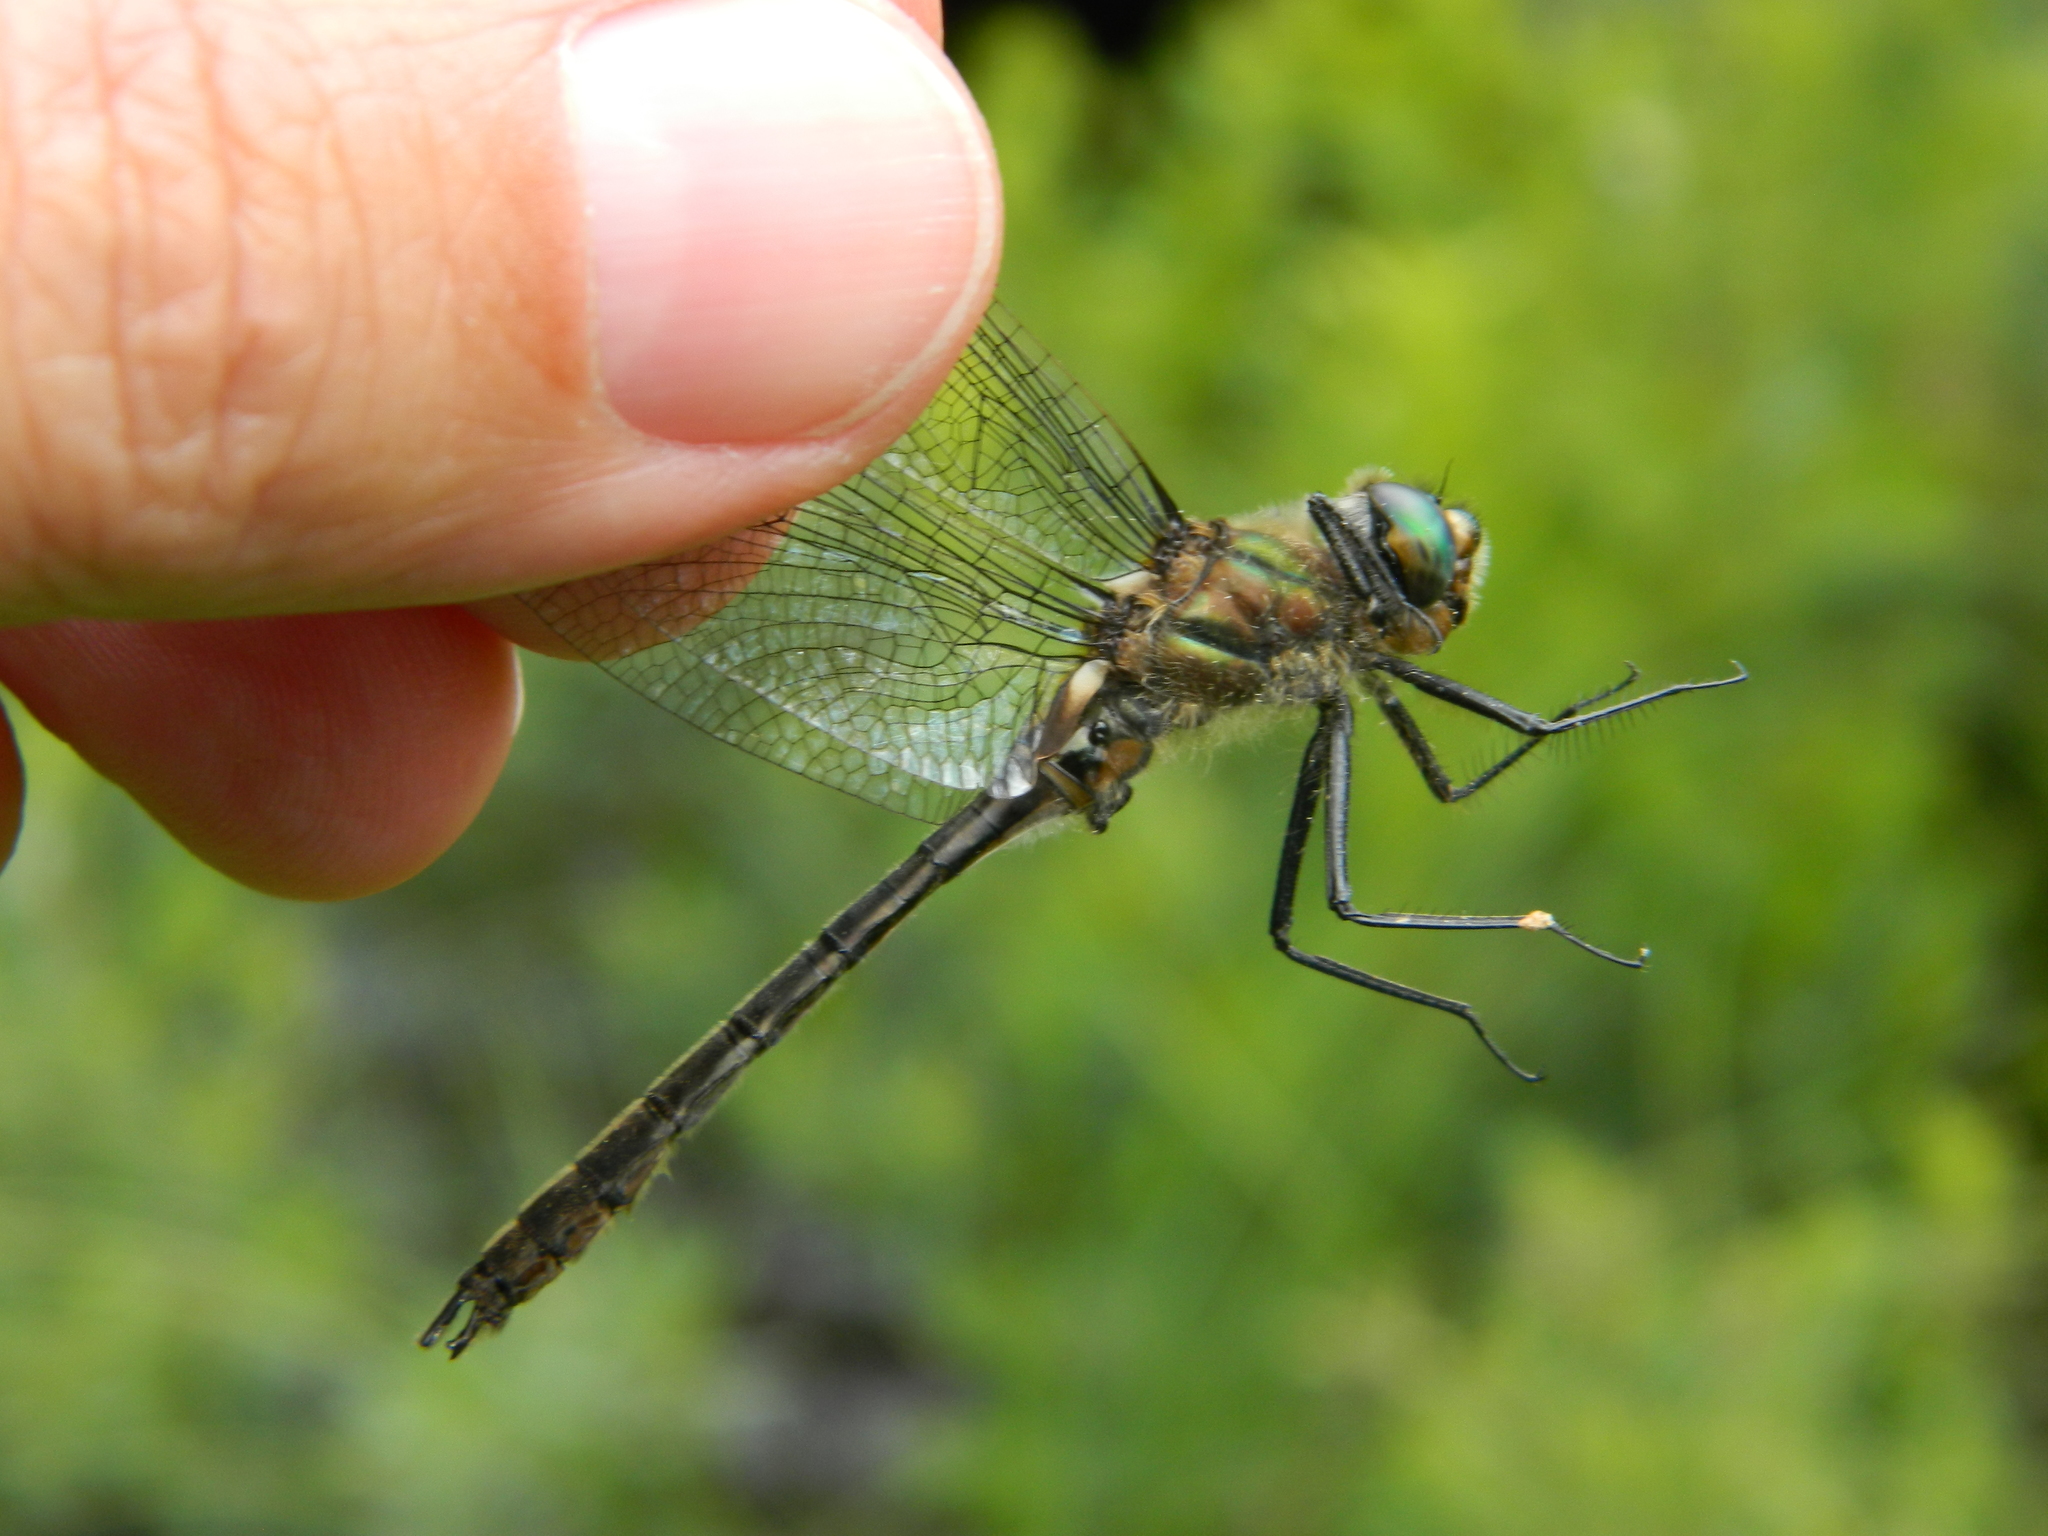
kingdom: Animalia
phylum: Arthropoda
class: Insecta
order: Odonata
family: Corduliidae
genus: Cordulia
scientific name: Cordulia shurtleffii
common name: American emerald
